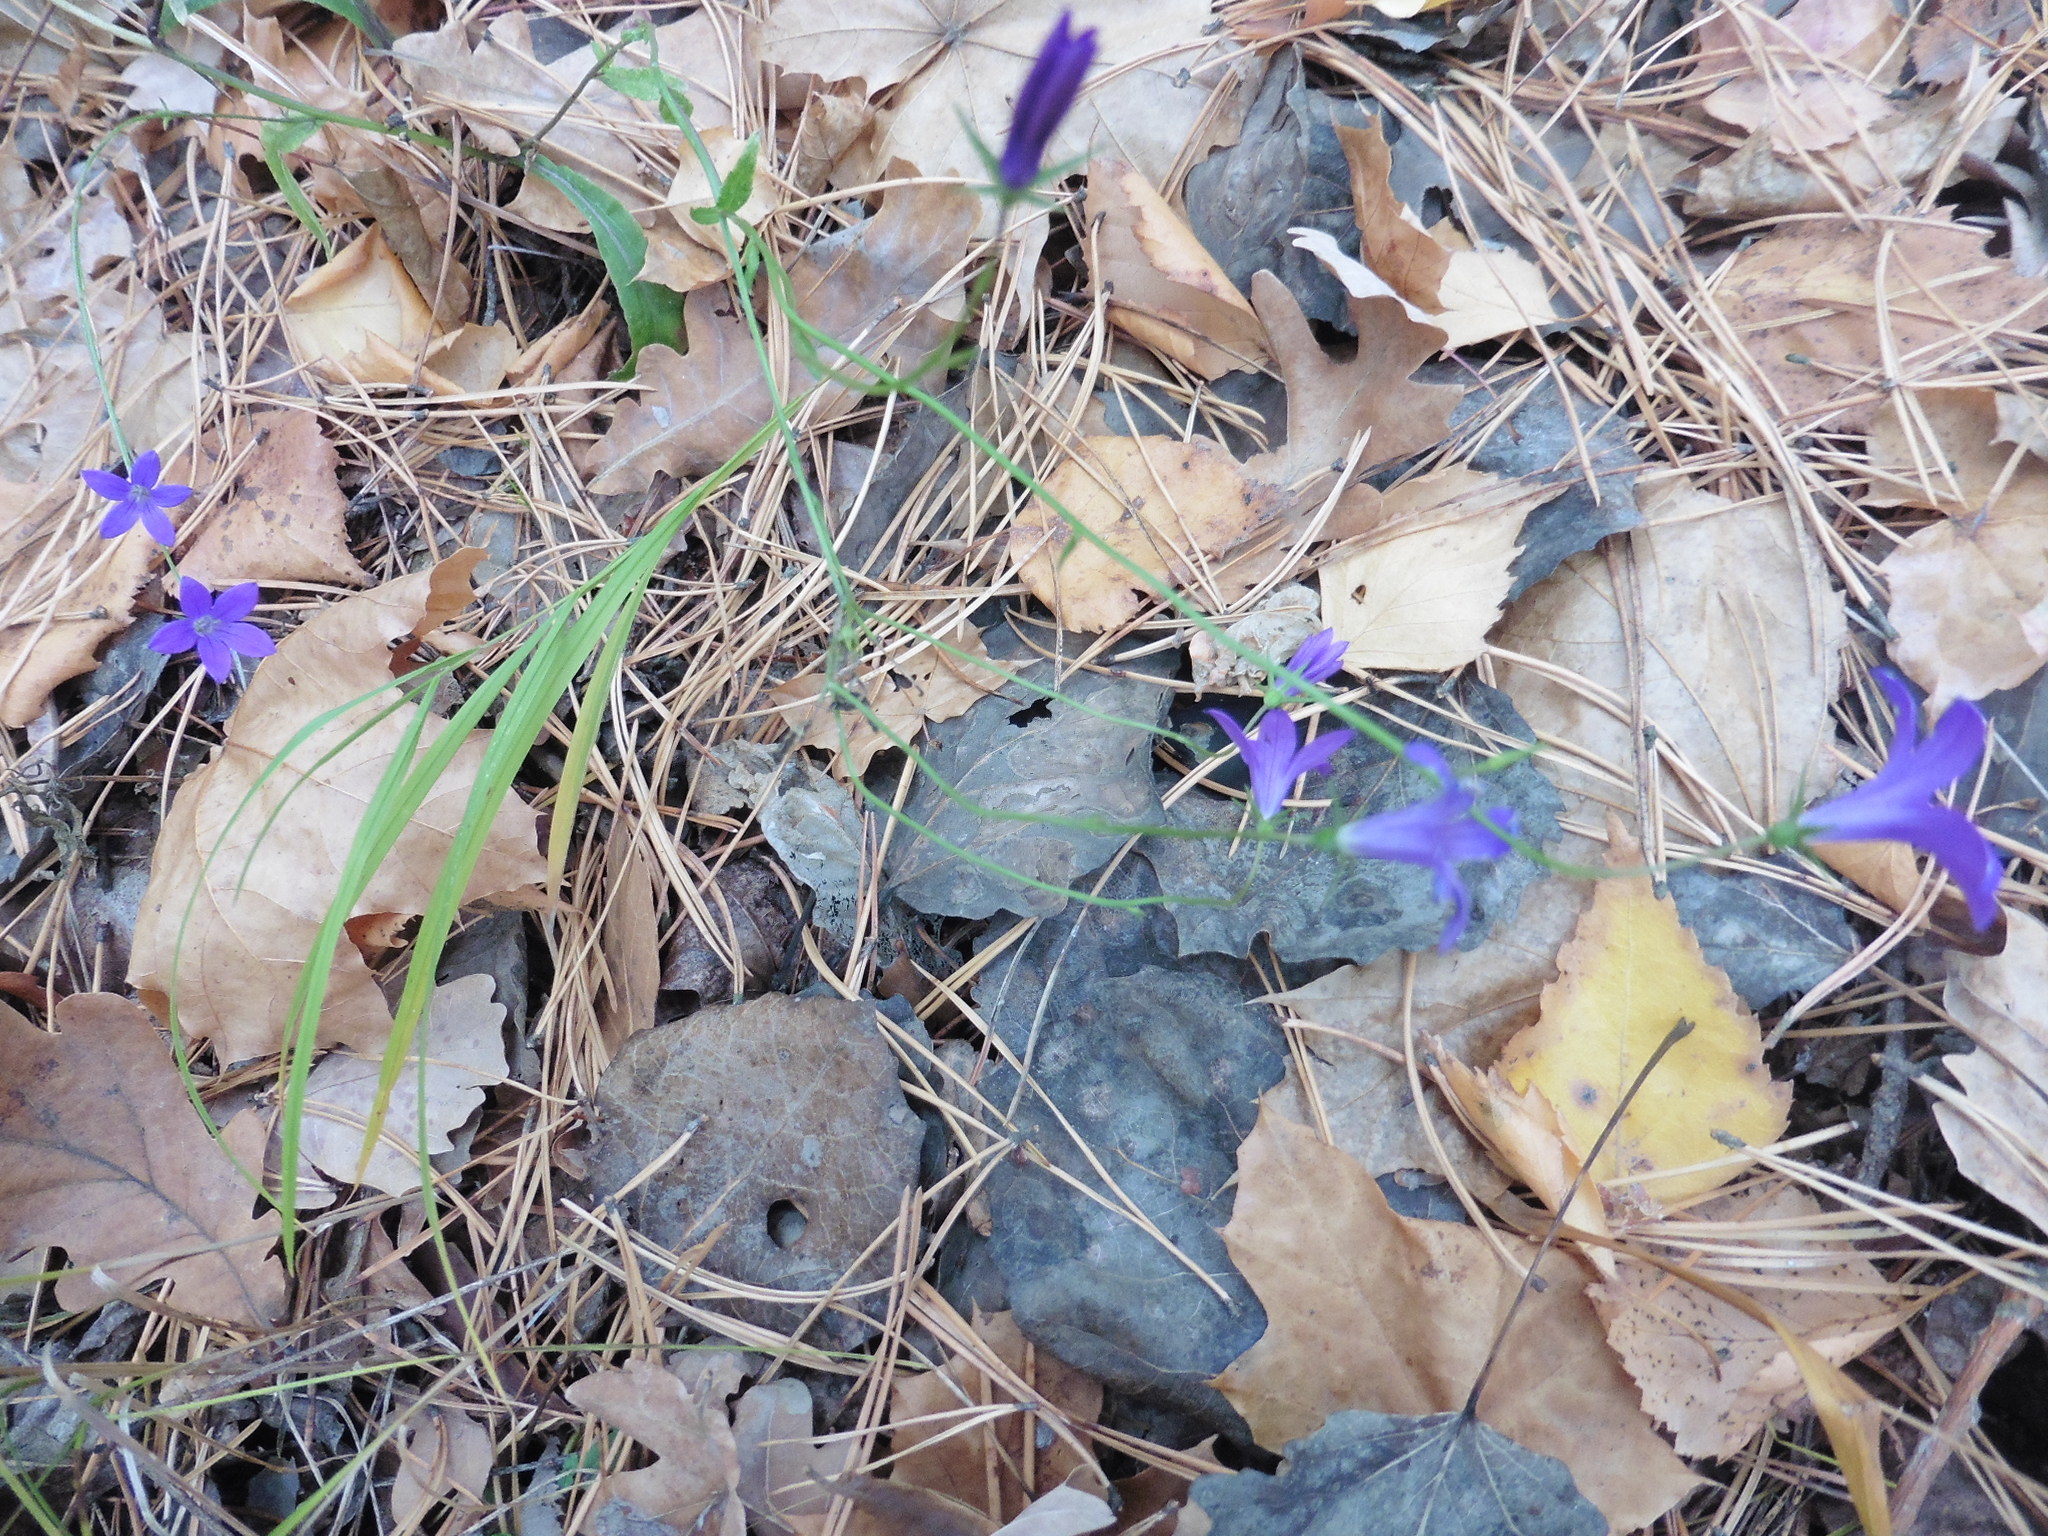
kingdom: Plantae
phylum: Tracheophyta
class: Magnoliopsida
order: Asterales
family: Campanulaceae
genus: Campanula
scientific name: Campanula patula
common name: Spreading bellflower
